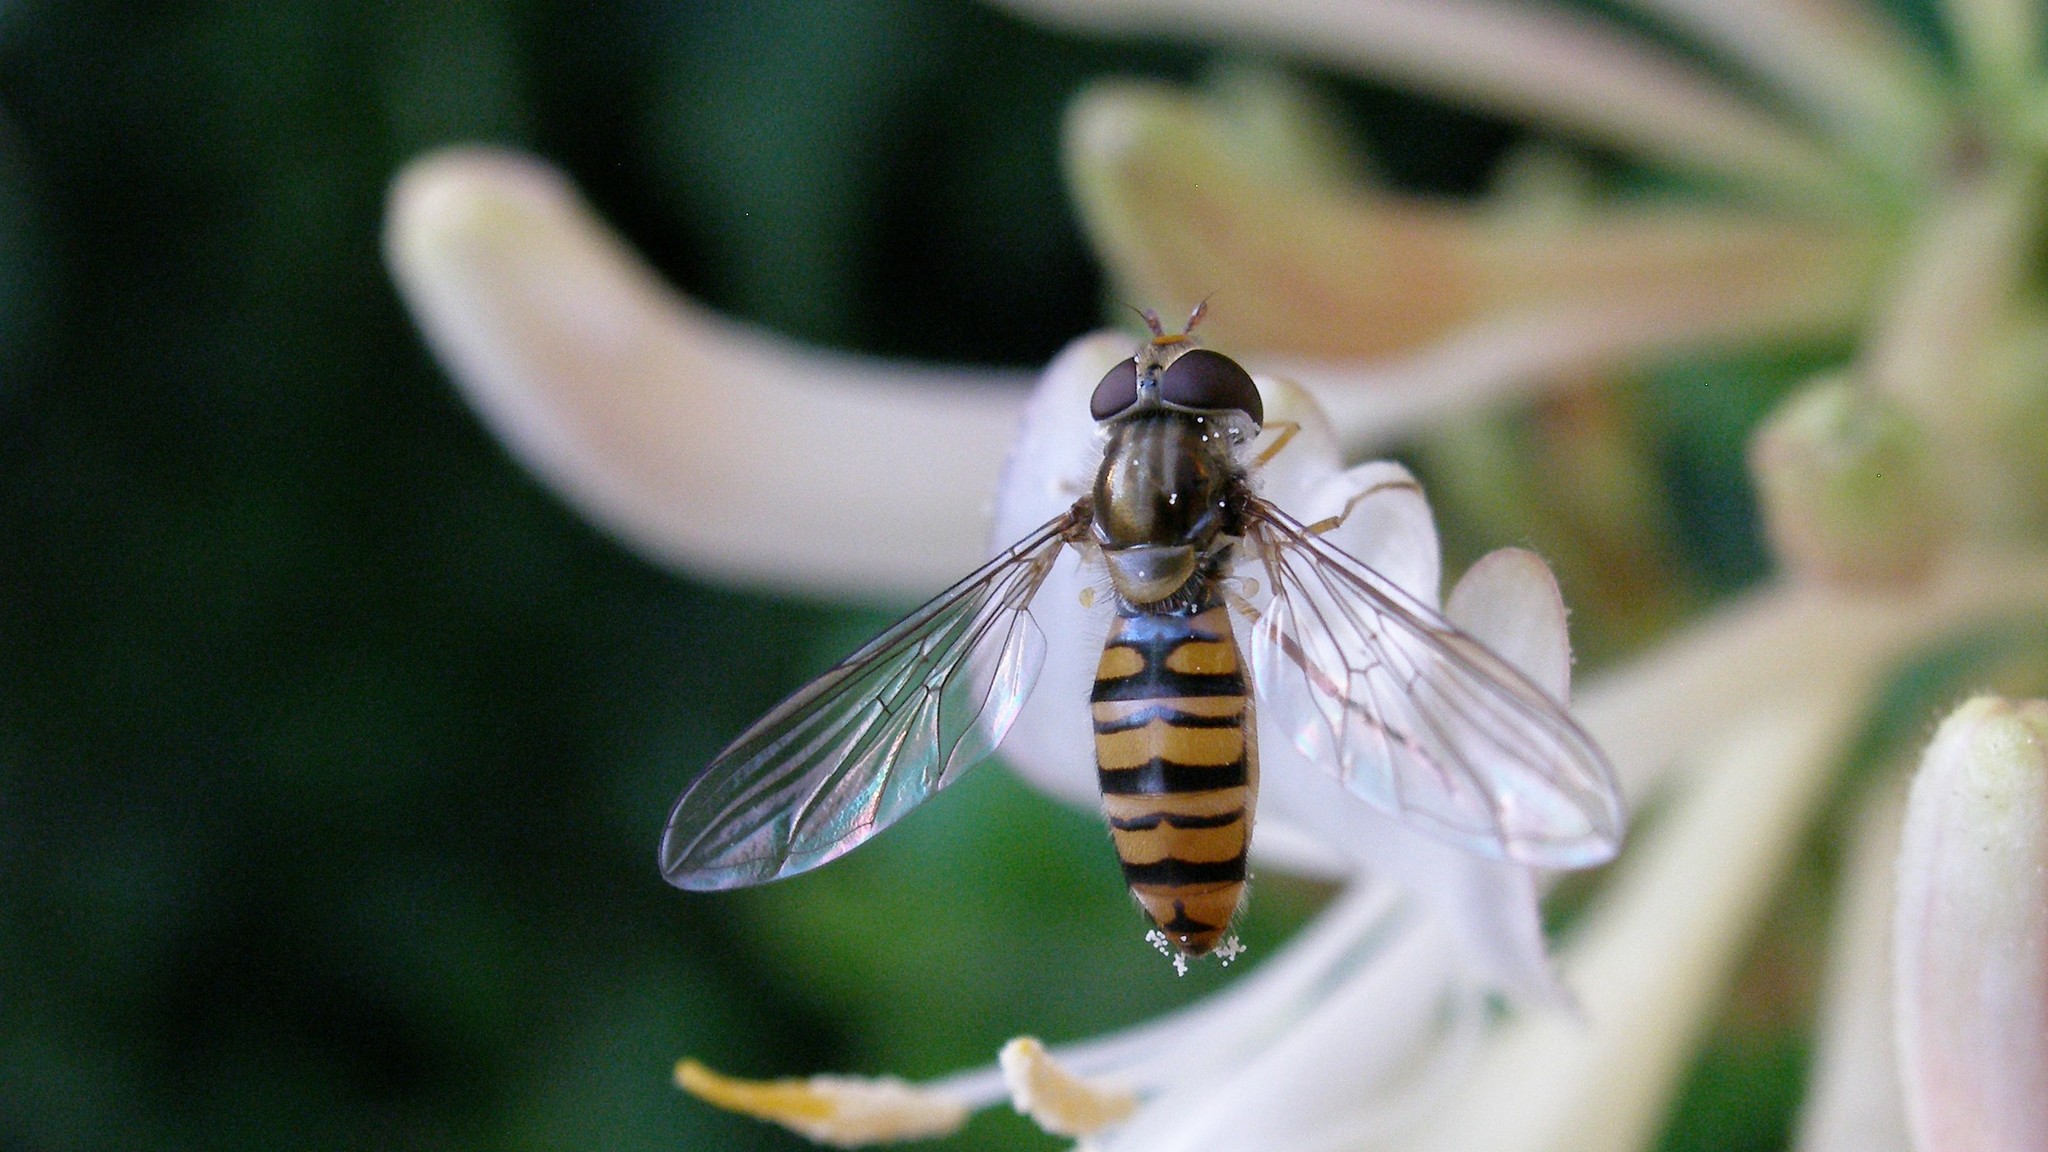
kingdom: Animalia
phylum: Arthropoda
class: Insecta
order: Diptera
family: Syrphidae
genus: Episyrphus
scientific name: Episyrphus balteatus
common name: Marmalade hoverfly
